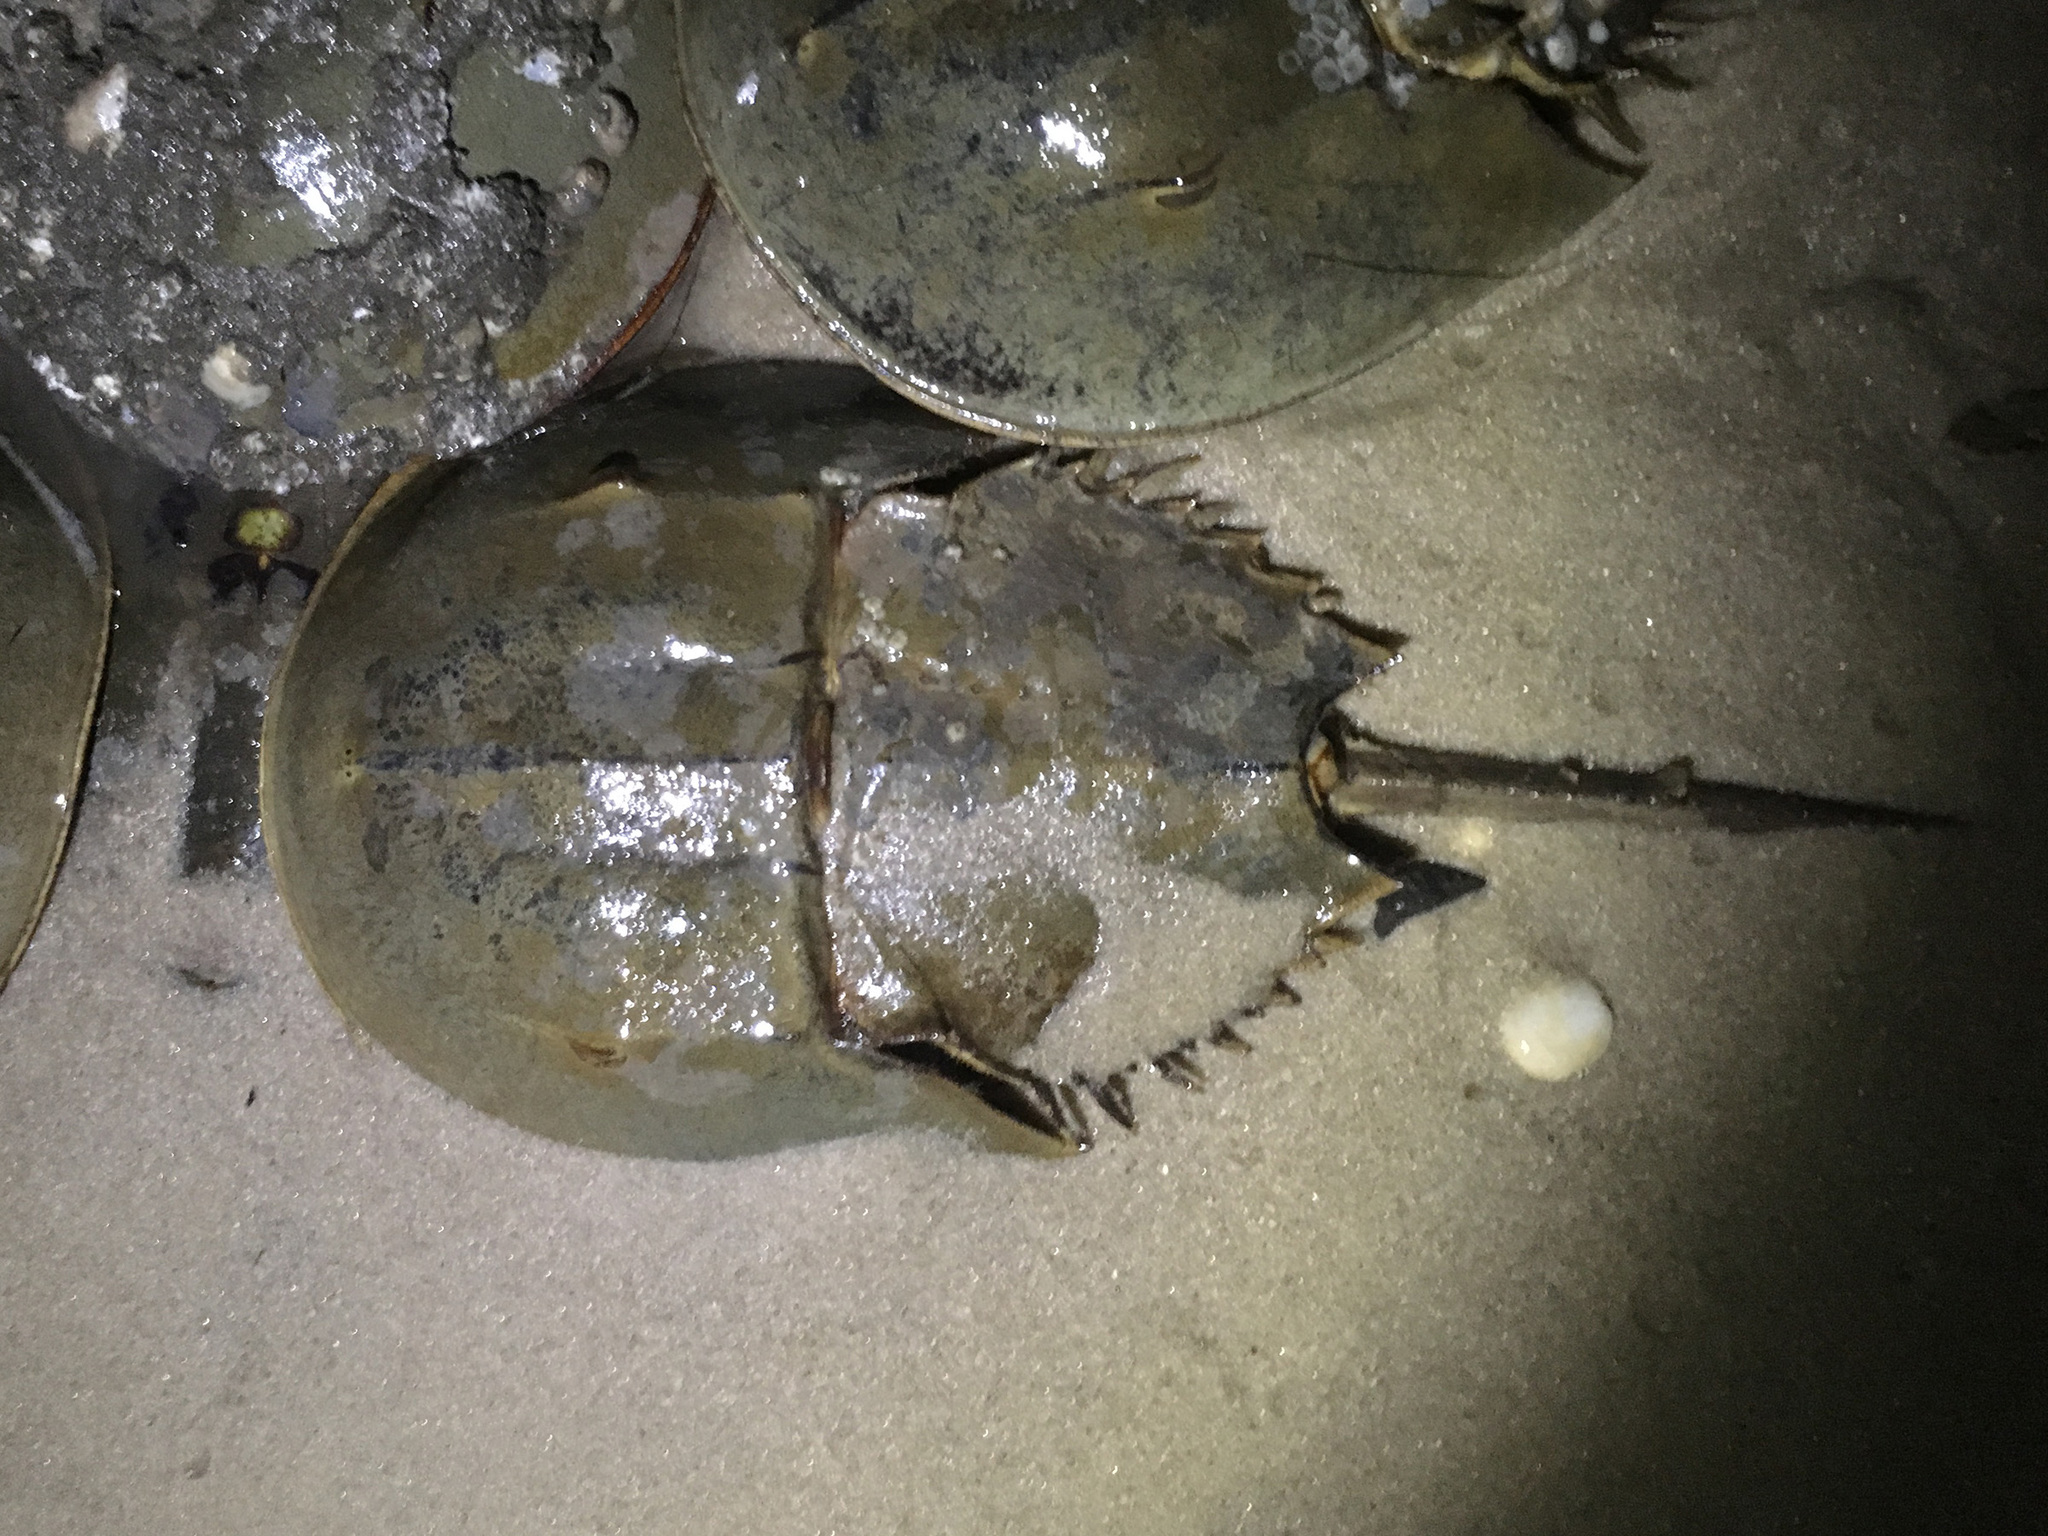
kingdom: Animalia
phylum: Arthropoda
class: Merostomata
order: Xiphosurida
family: Limulidae
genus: Limulus
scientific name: Limulus polyphemus
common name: Horseshoe crab
